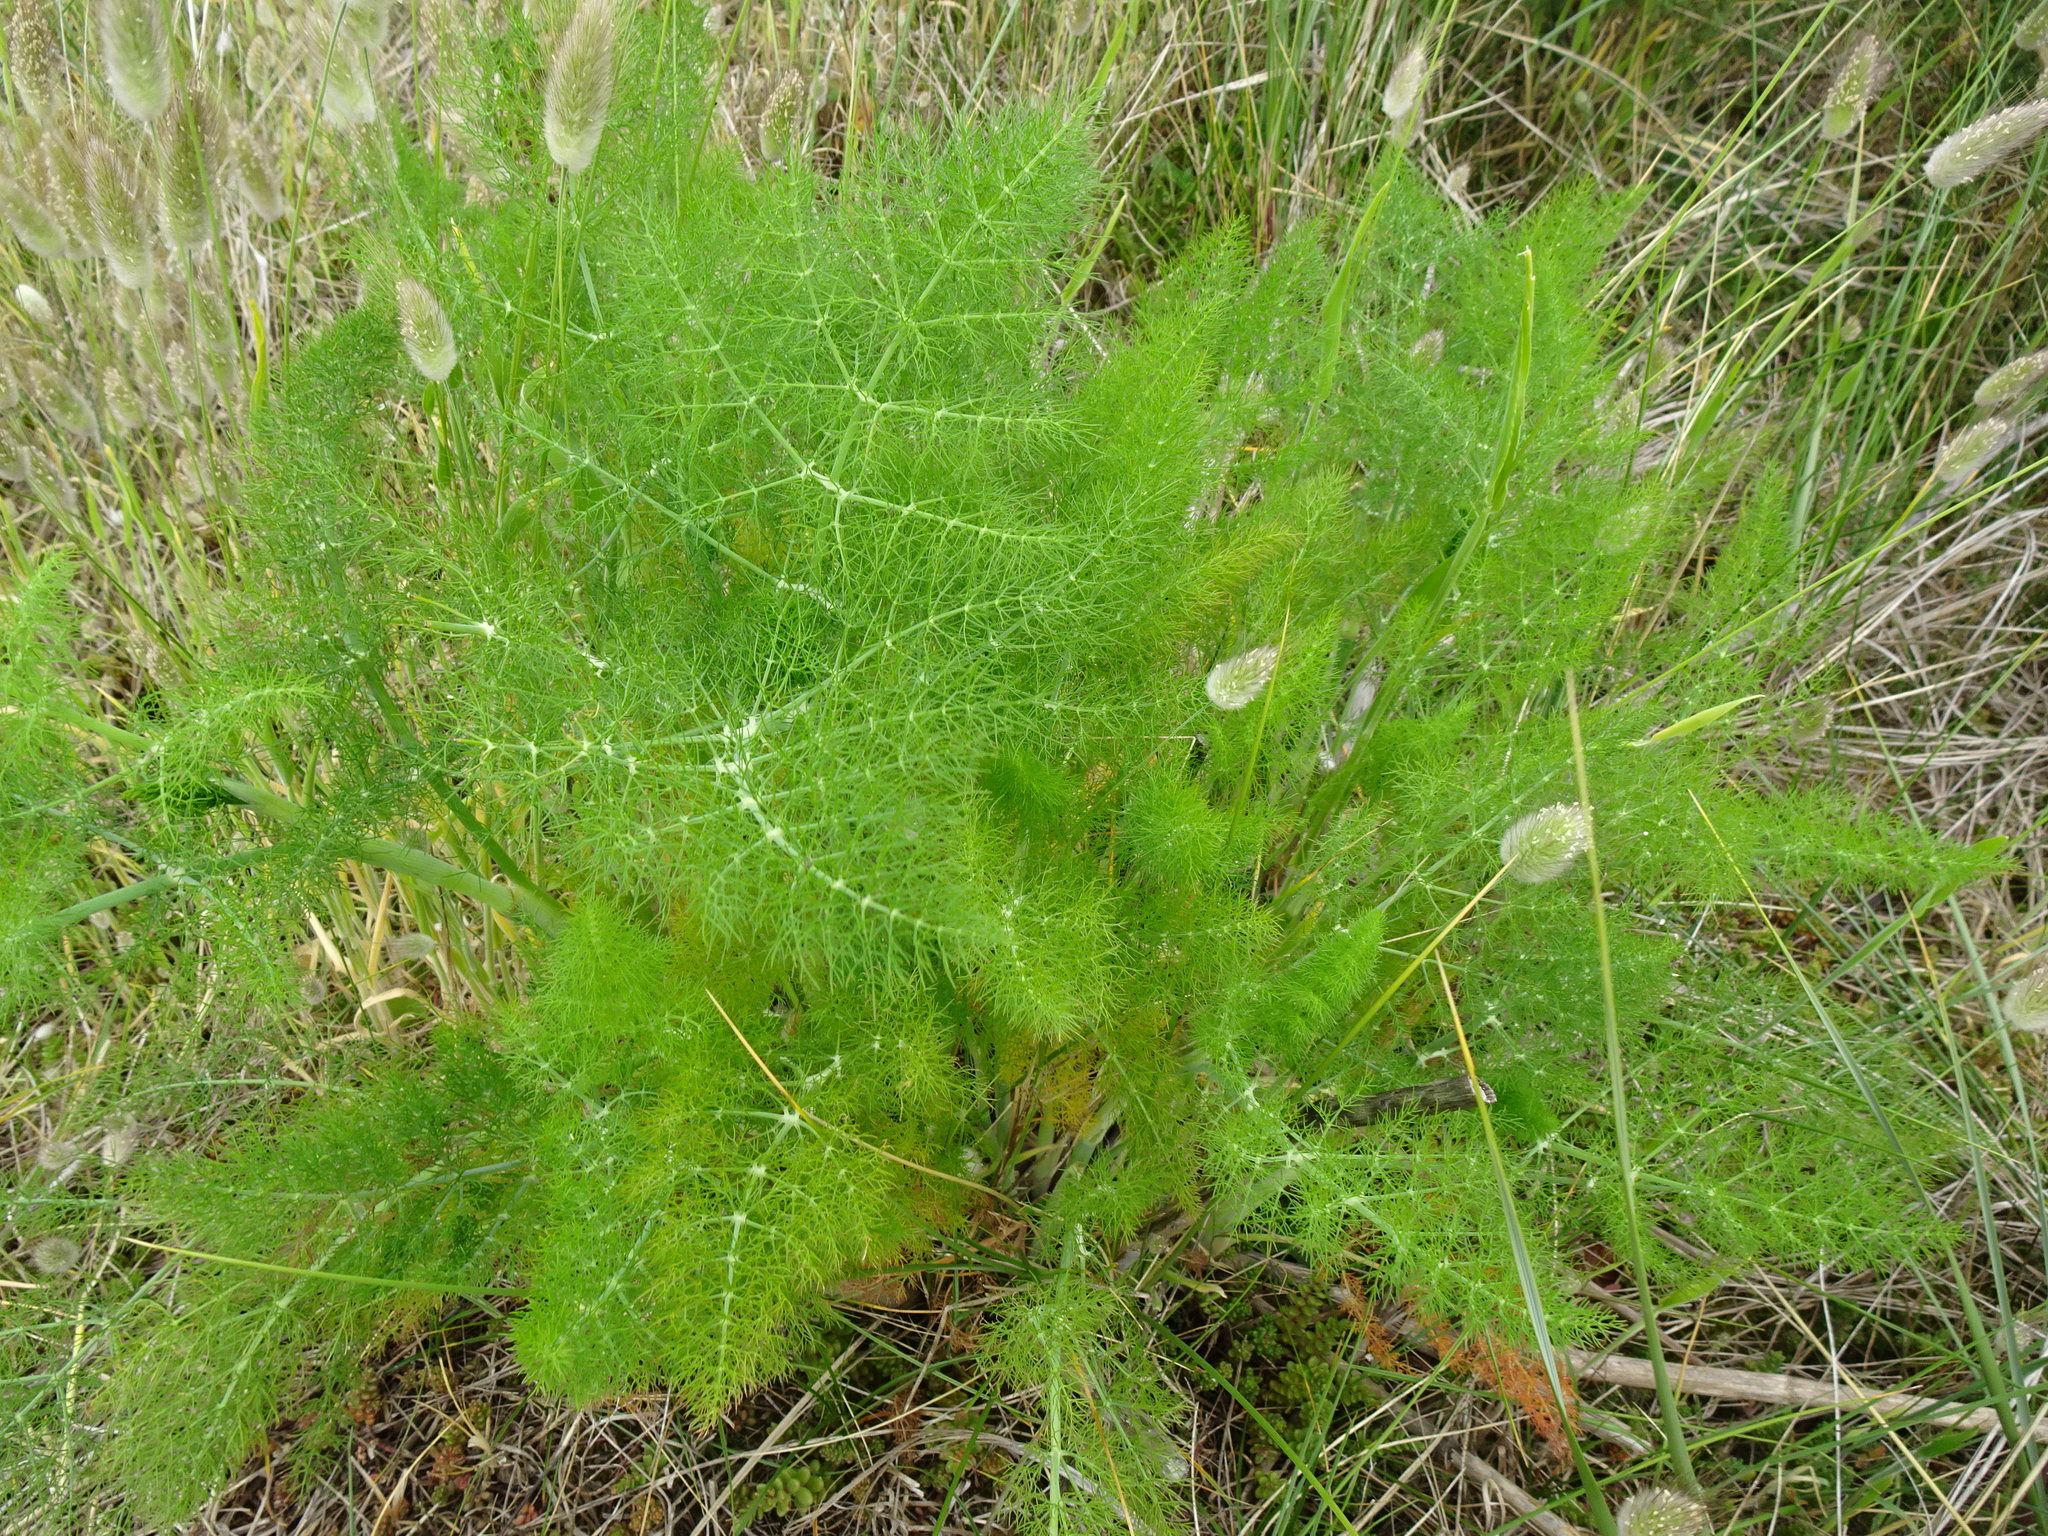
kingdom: Plantae
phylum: Tracheophyta
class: Magnoliopsida
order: Apiales
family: Apiaceae
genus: Foeniculum
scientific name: Foeniculum vulgare
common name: Fennel
